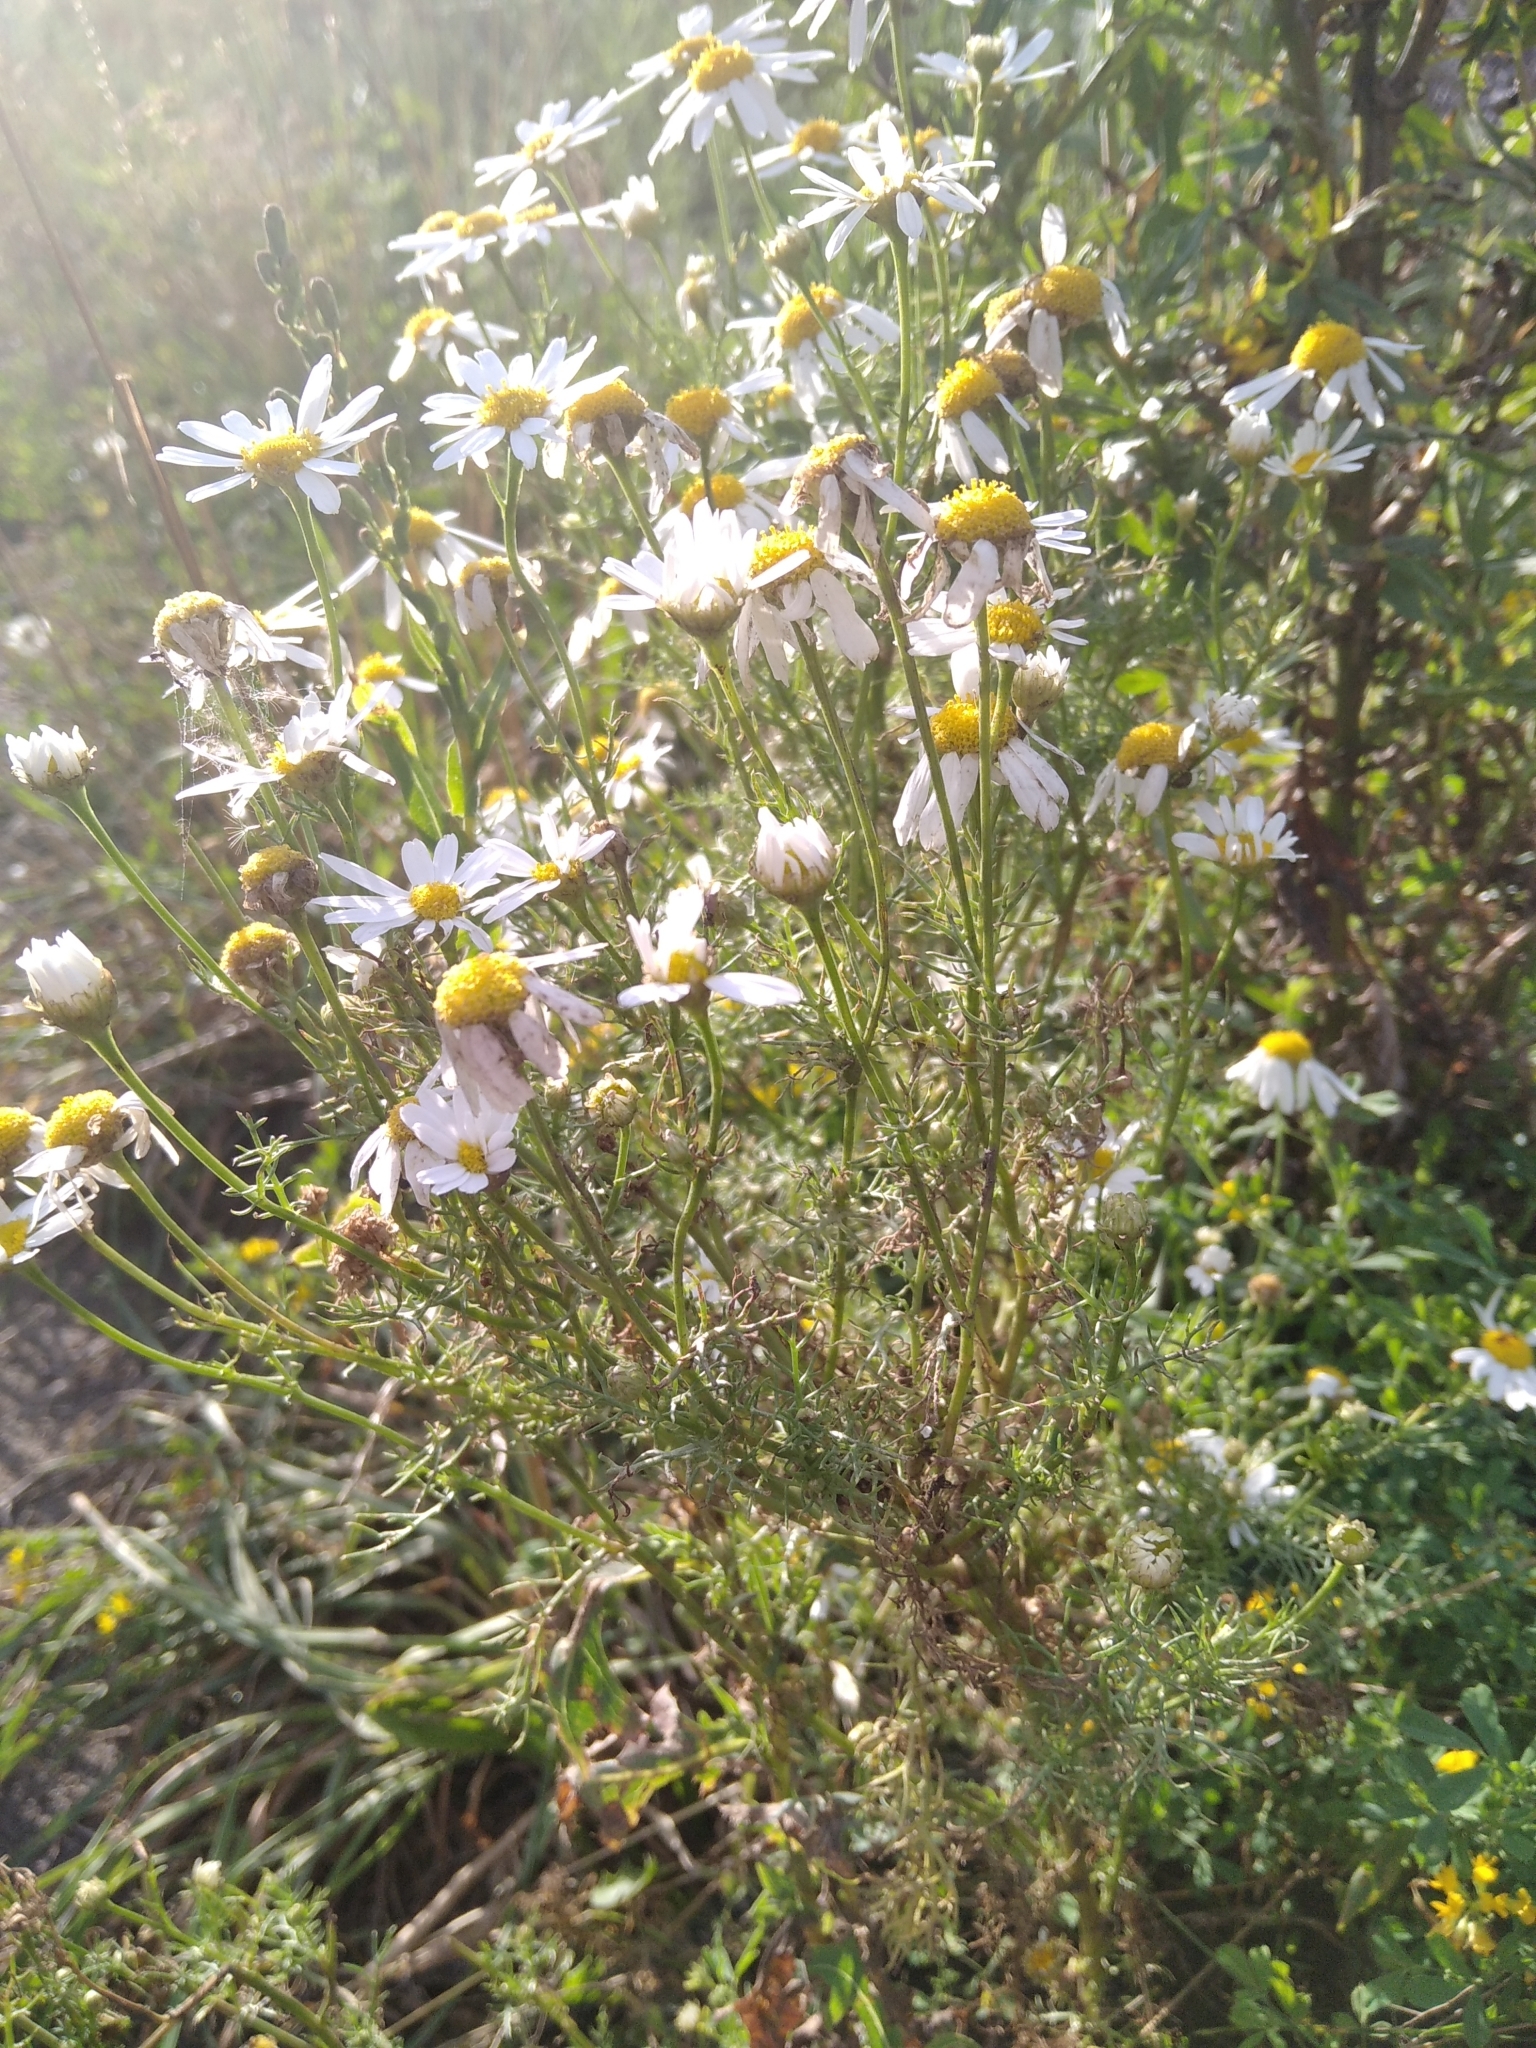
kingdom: Plantae
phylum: Tracheophyta
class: Magnoliopsida
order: Asterales
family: Asteraceae
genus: Tripleurospermum
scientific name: Tripleurospermum inodorum
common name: Scentless mayweed
